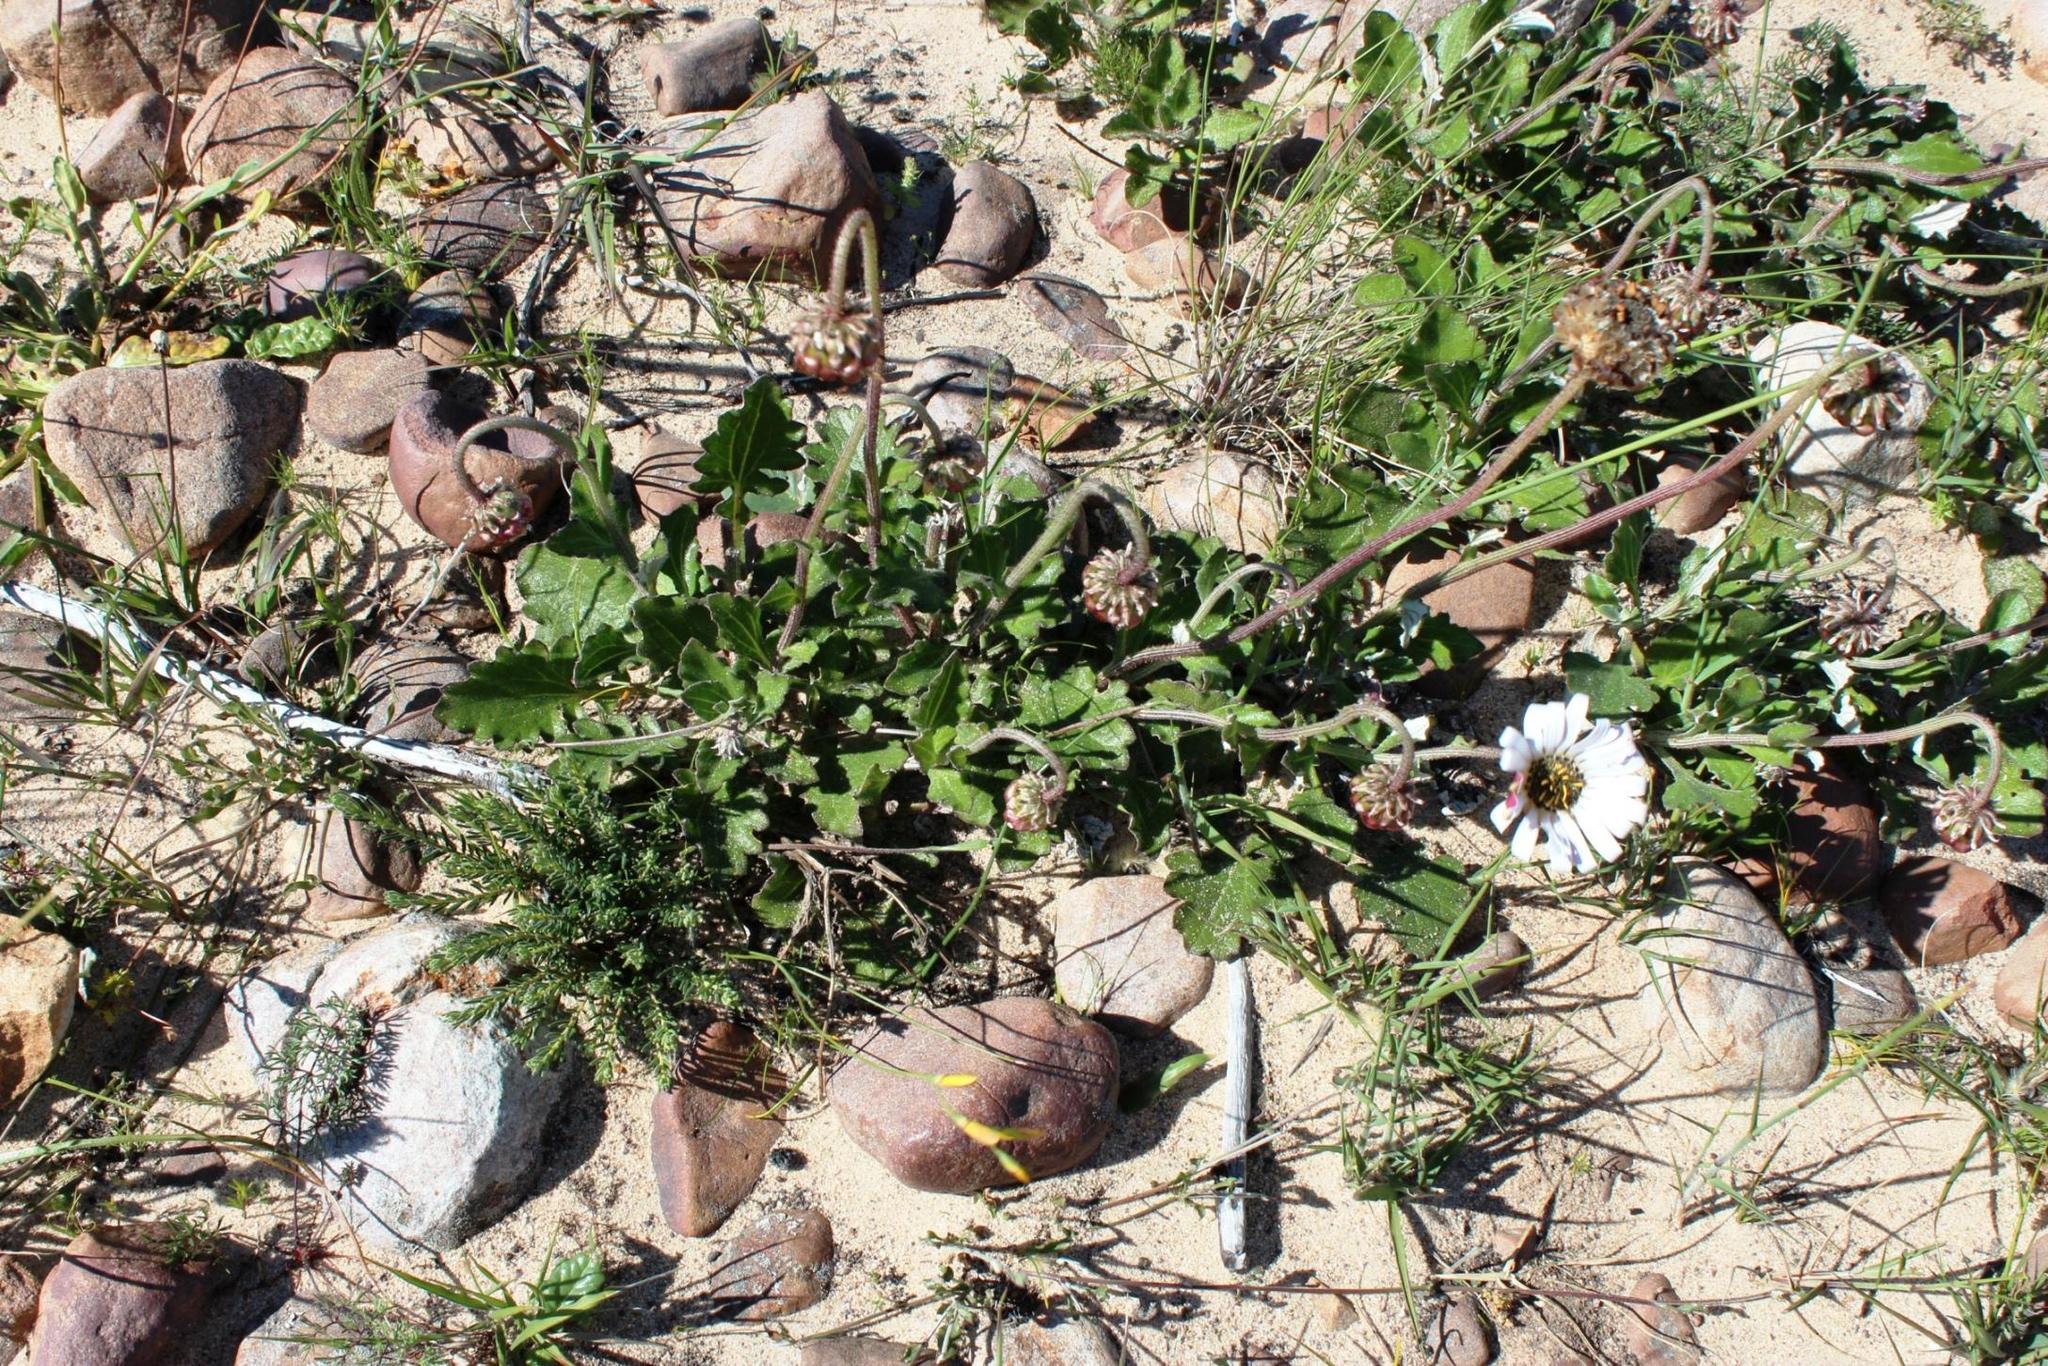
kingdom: Plantae
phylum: Tracheophyta
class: Magnoliopsida
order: Asterales
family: Asteraceae
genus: Arctotis
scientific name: Arctotis acaulis
